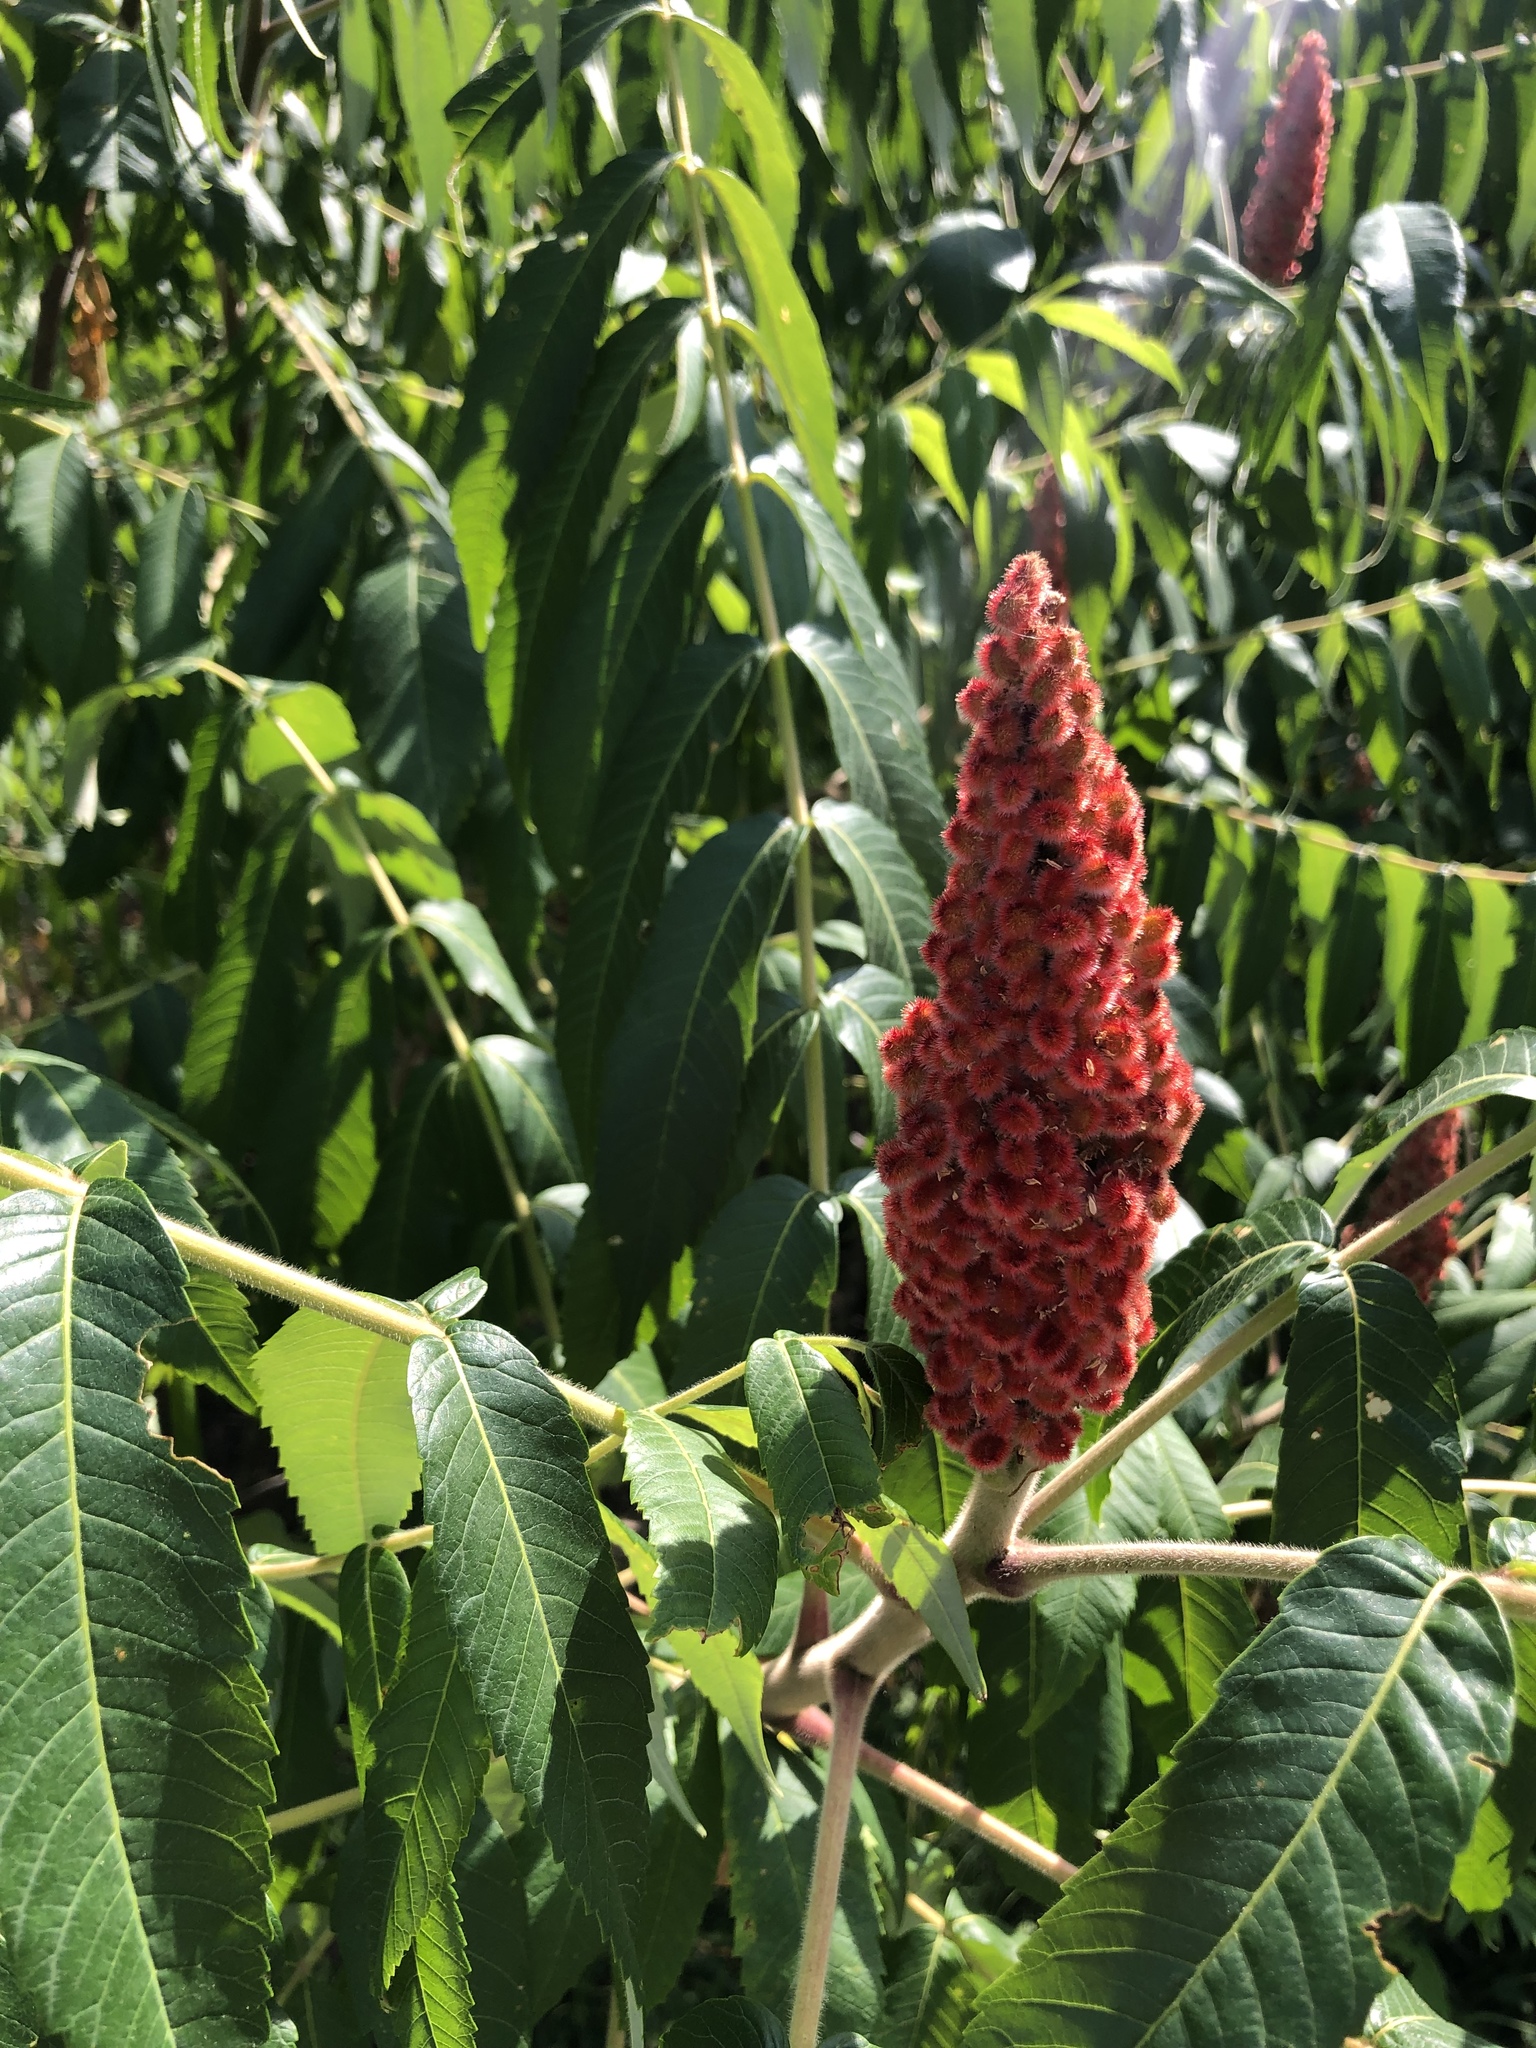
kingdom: Plantae
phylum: Tracheophyta
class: Magnoliopsida
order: Sapindales
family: Anacardiaceae
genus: Rhus
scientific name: Rhus typhina
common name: Staghorn sumac
